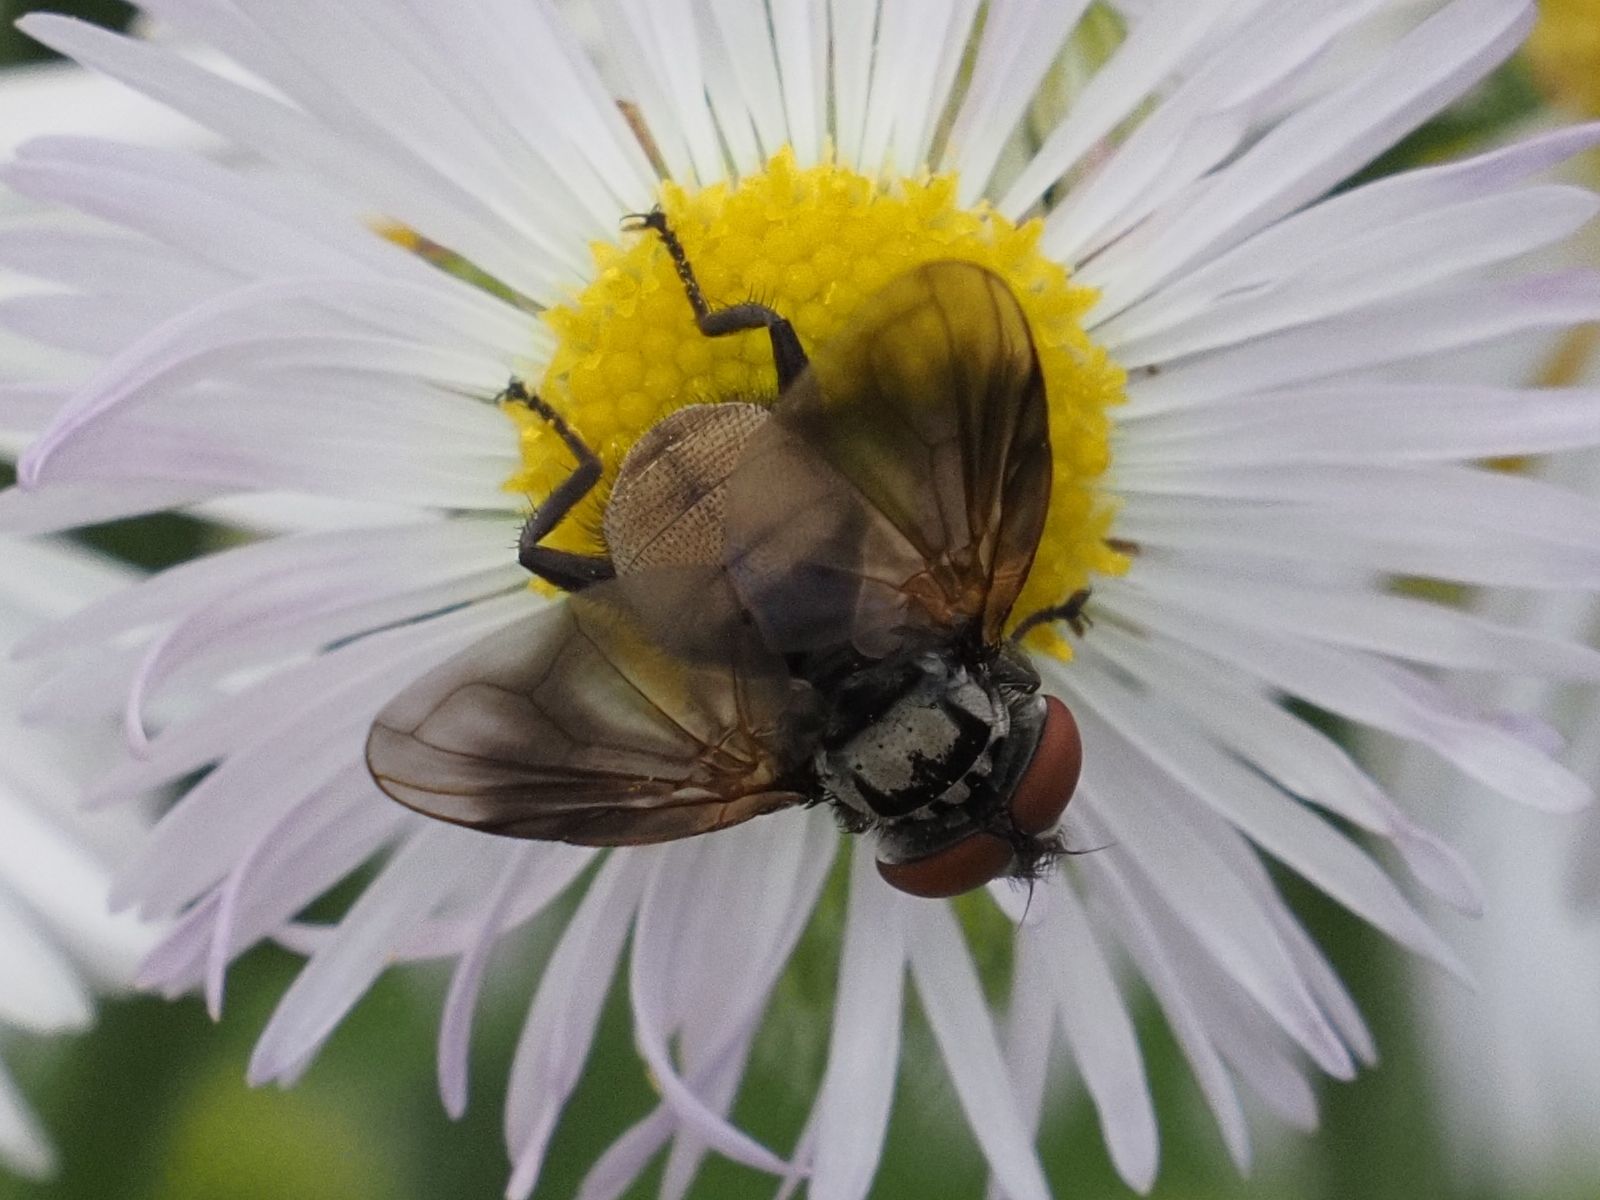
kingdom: Animalia
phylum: Arthropoda
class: Insecta
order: Diptera
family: Tachinidae
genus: Phasia
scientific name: Phasia obesa
